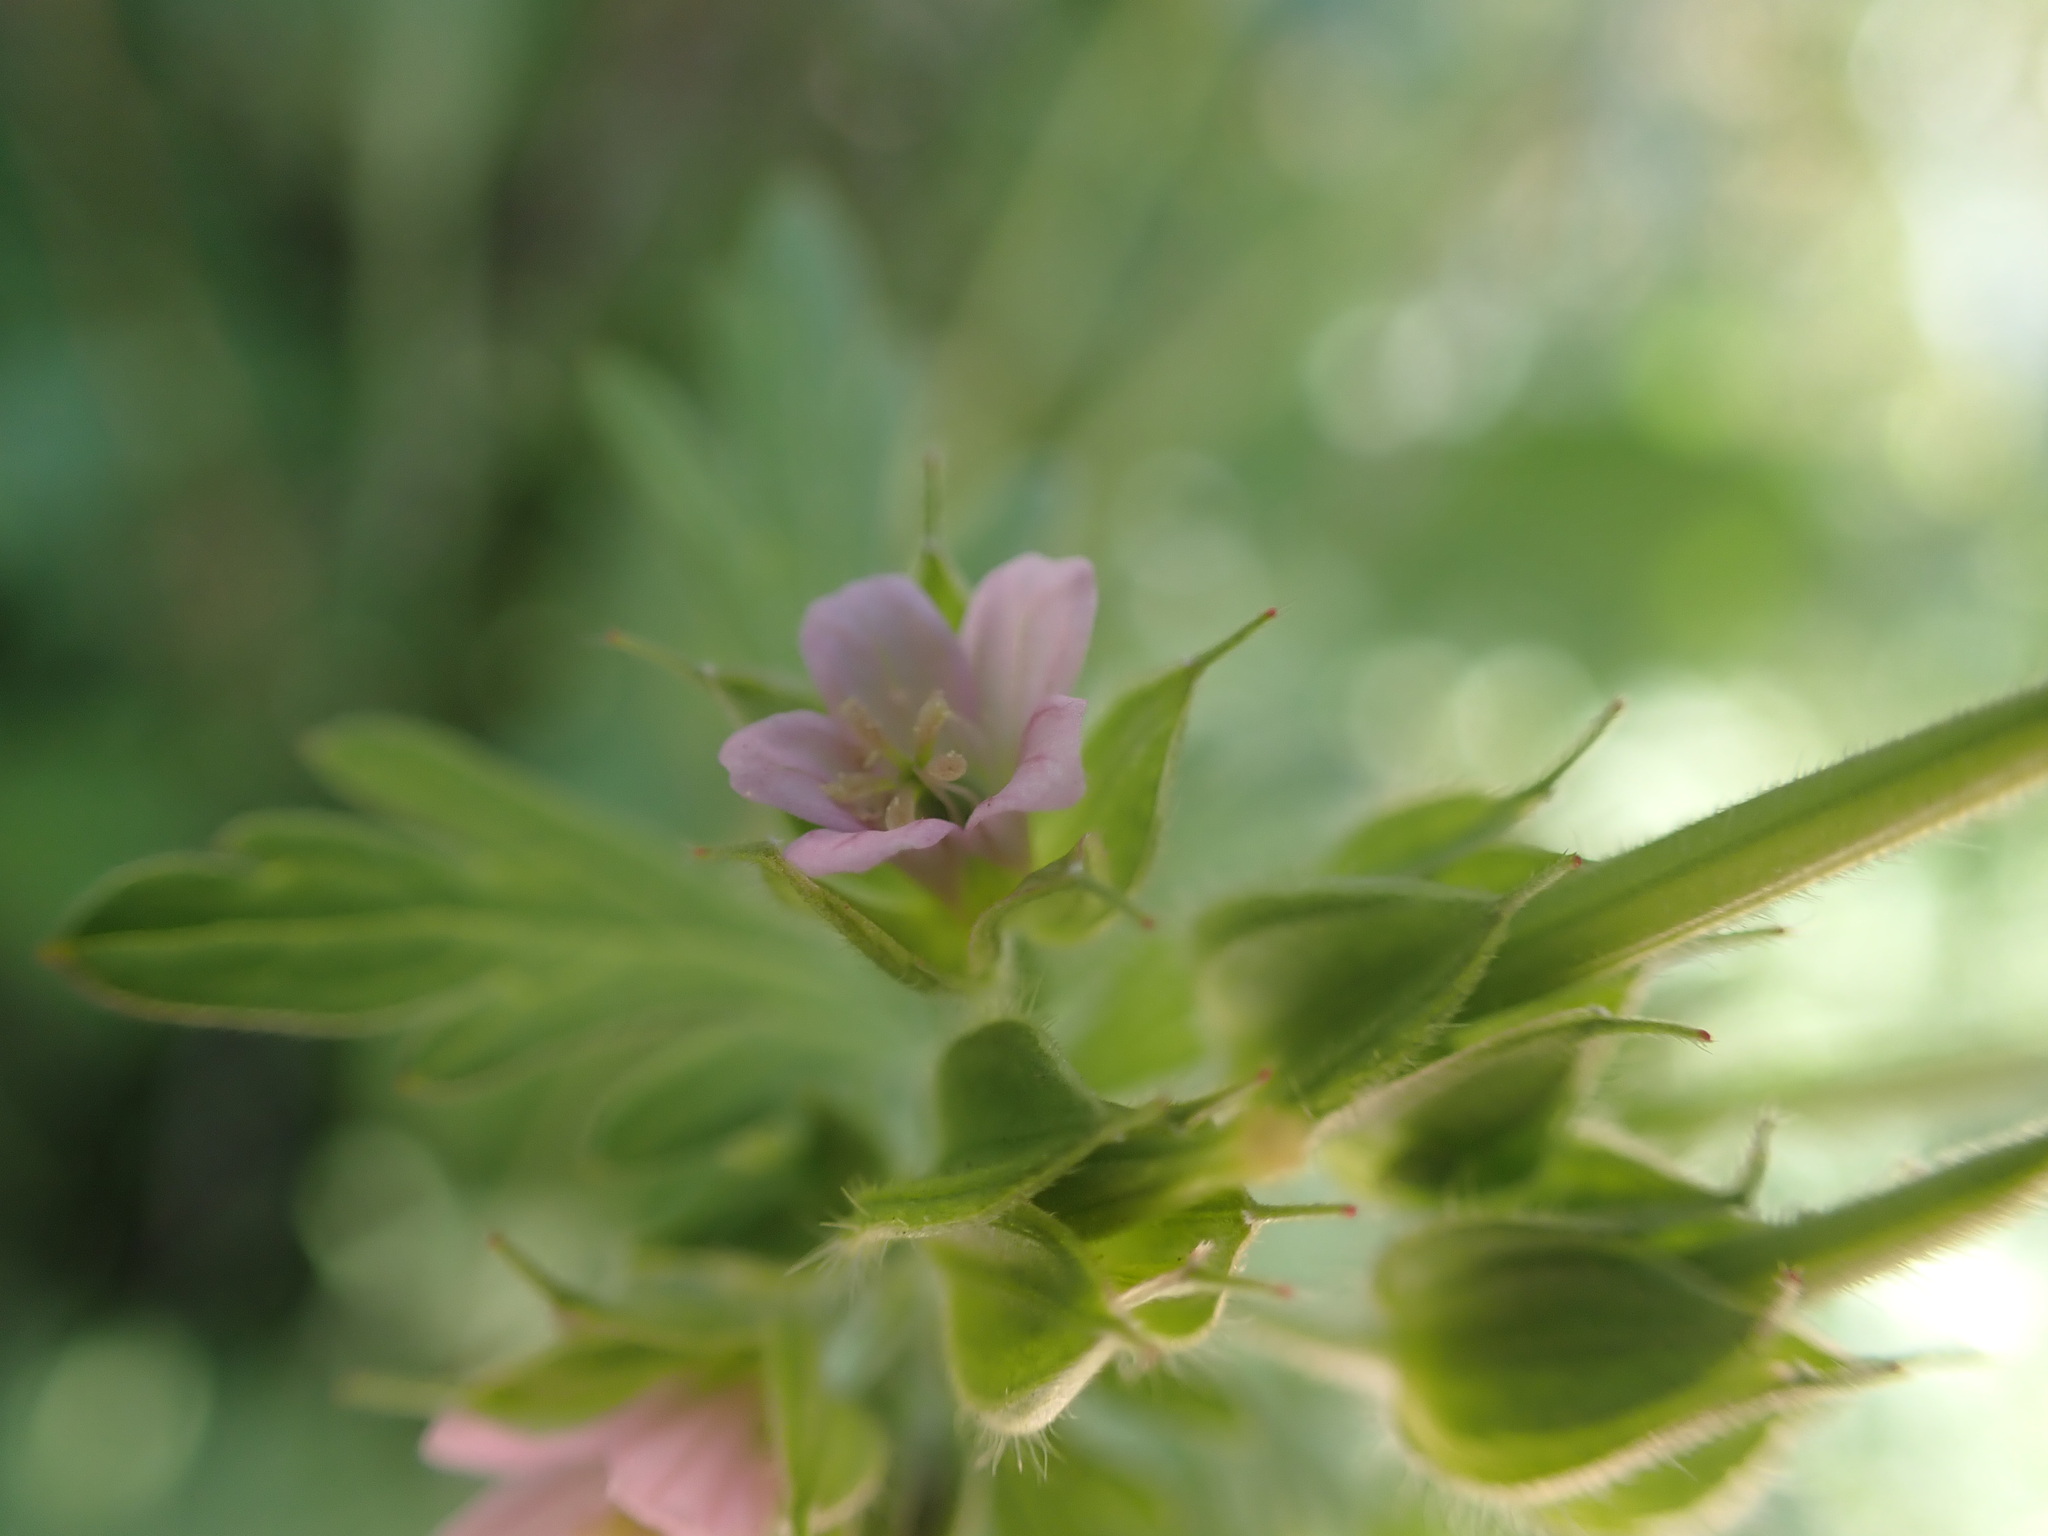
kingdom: Plantae
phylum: Tracheophyta
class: Magnoliopsida
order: Geraniales
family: Geraniaceae
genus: Geranium
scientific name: Geranium carolinianum
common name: Carolina crane's-bill
